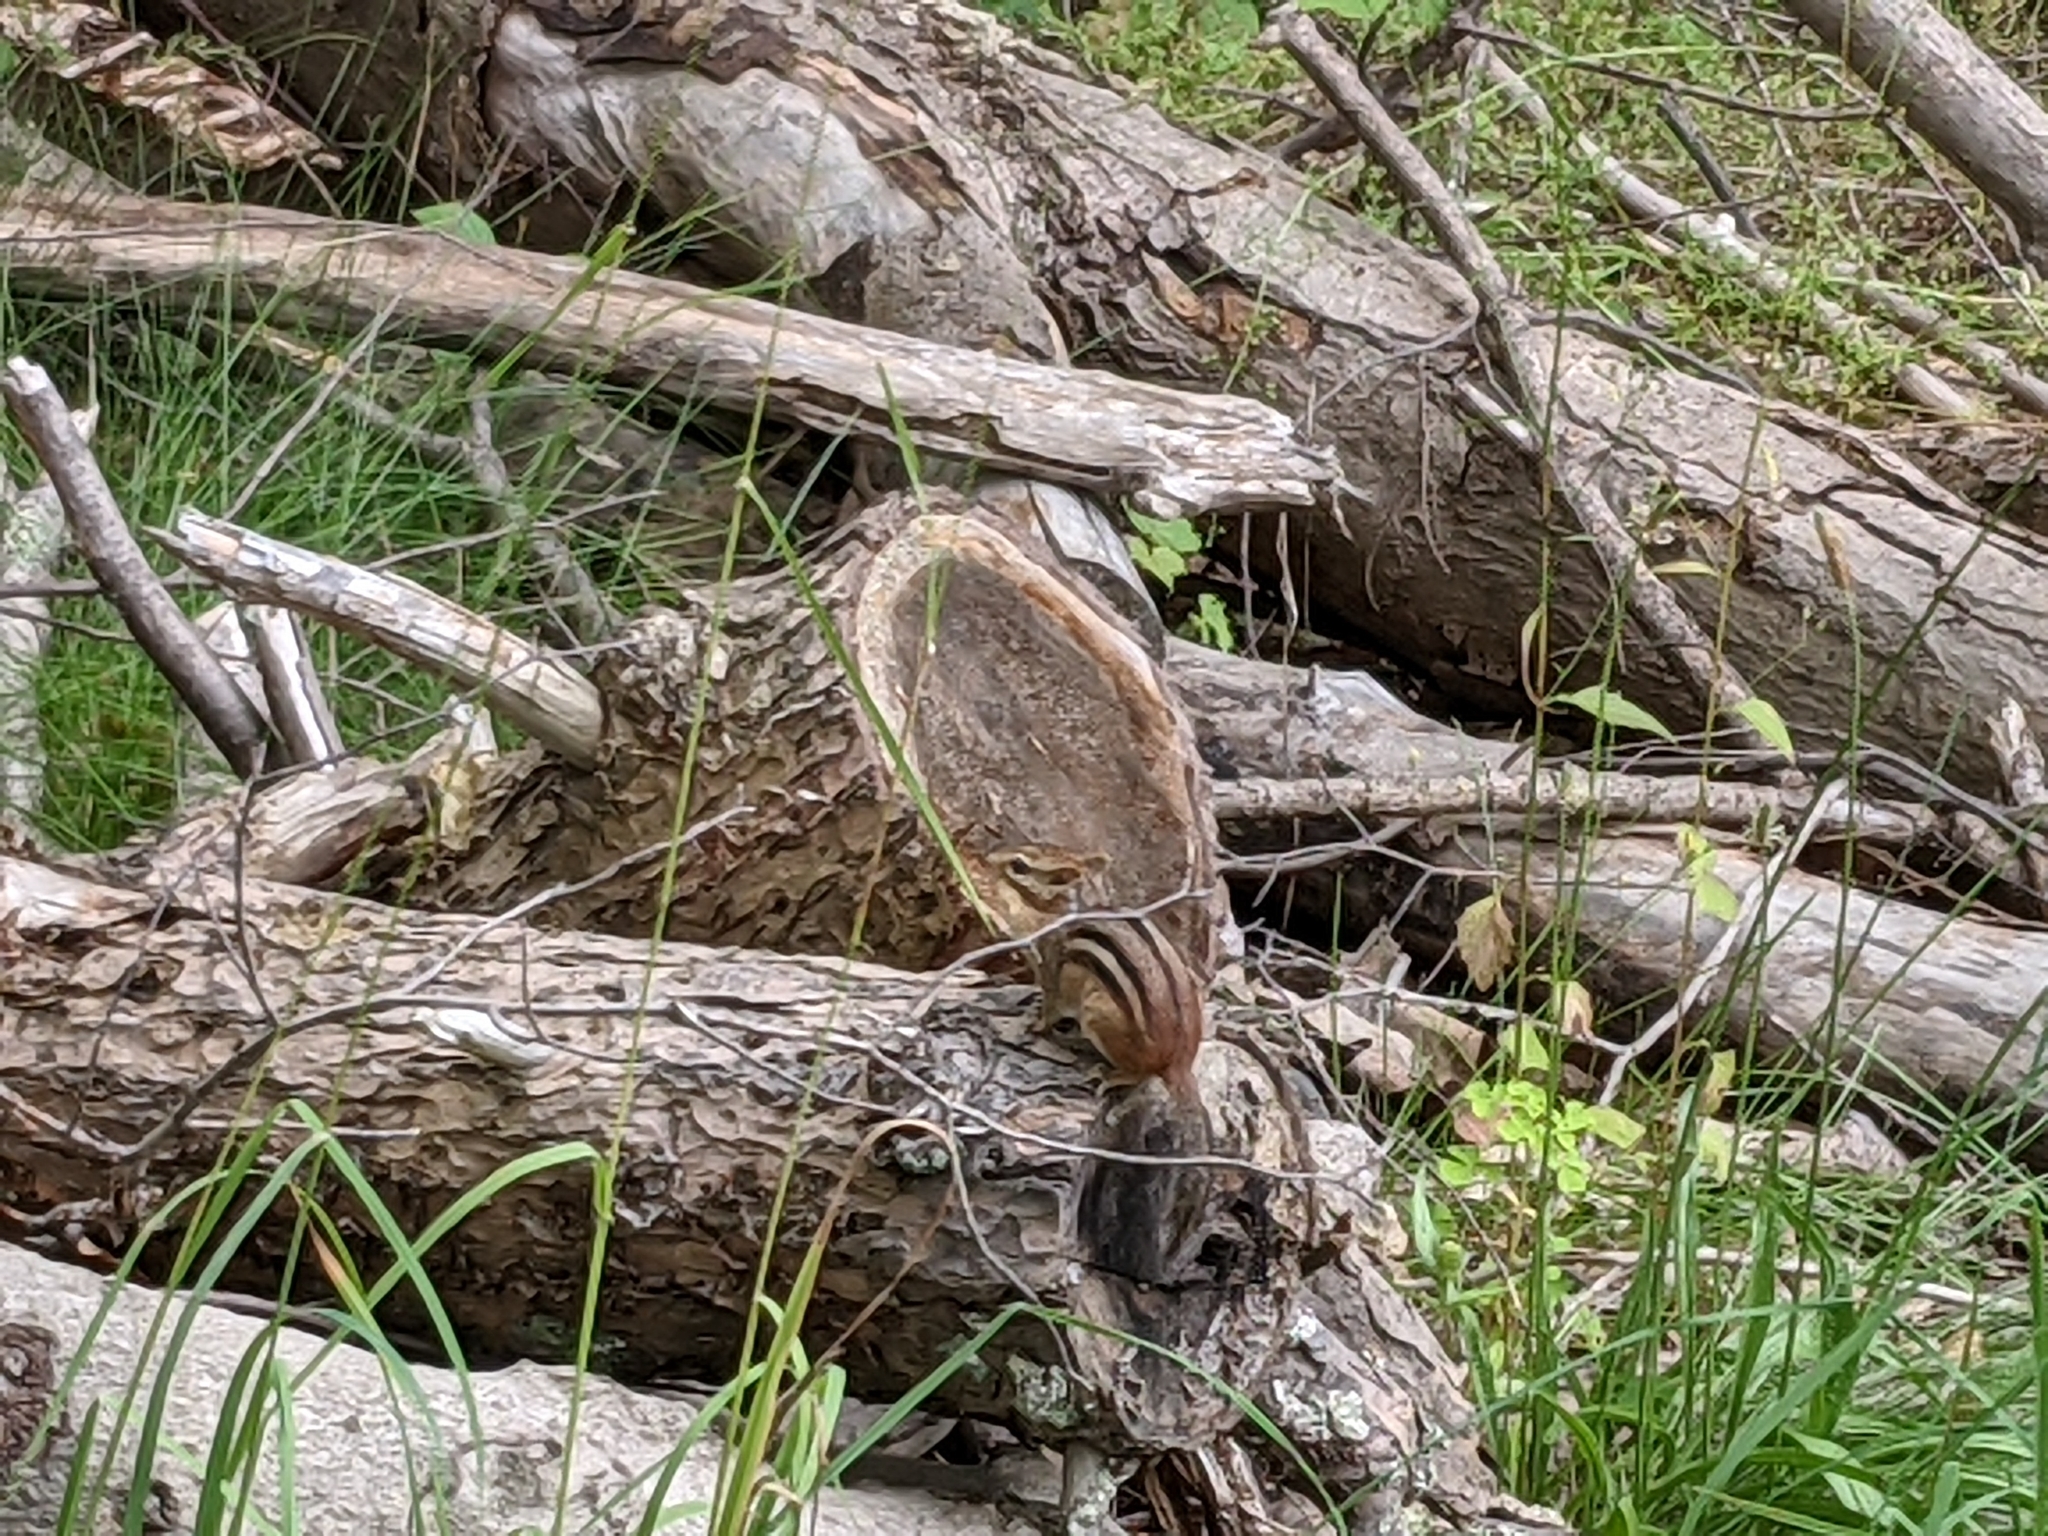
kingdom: Animalia
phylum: Chordata
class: Mammalia
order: Rodentia
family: Sciuridae
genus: Tamias
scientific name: Tamias striatus
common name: Eastern chipmunk
